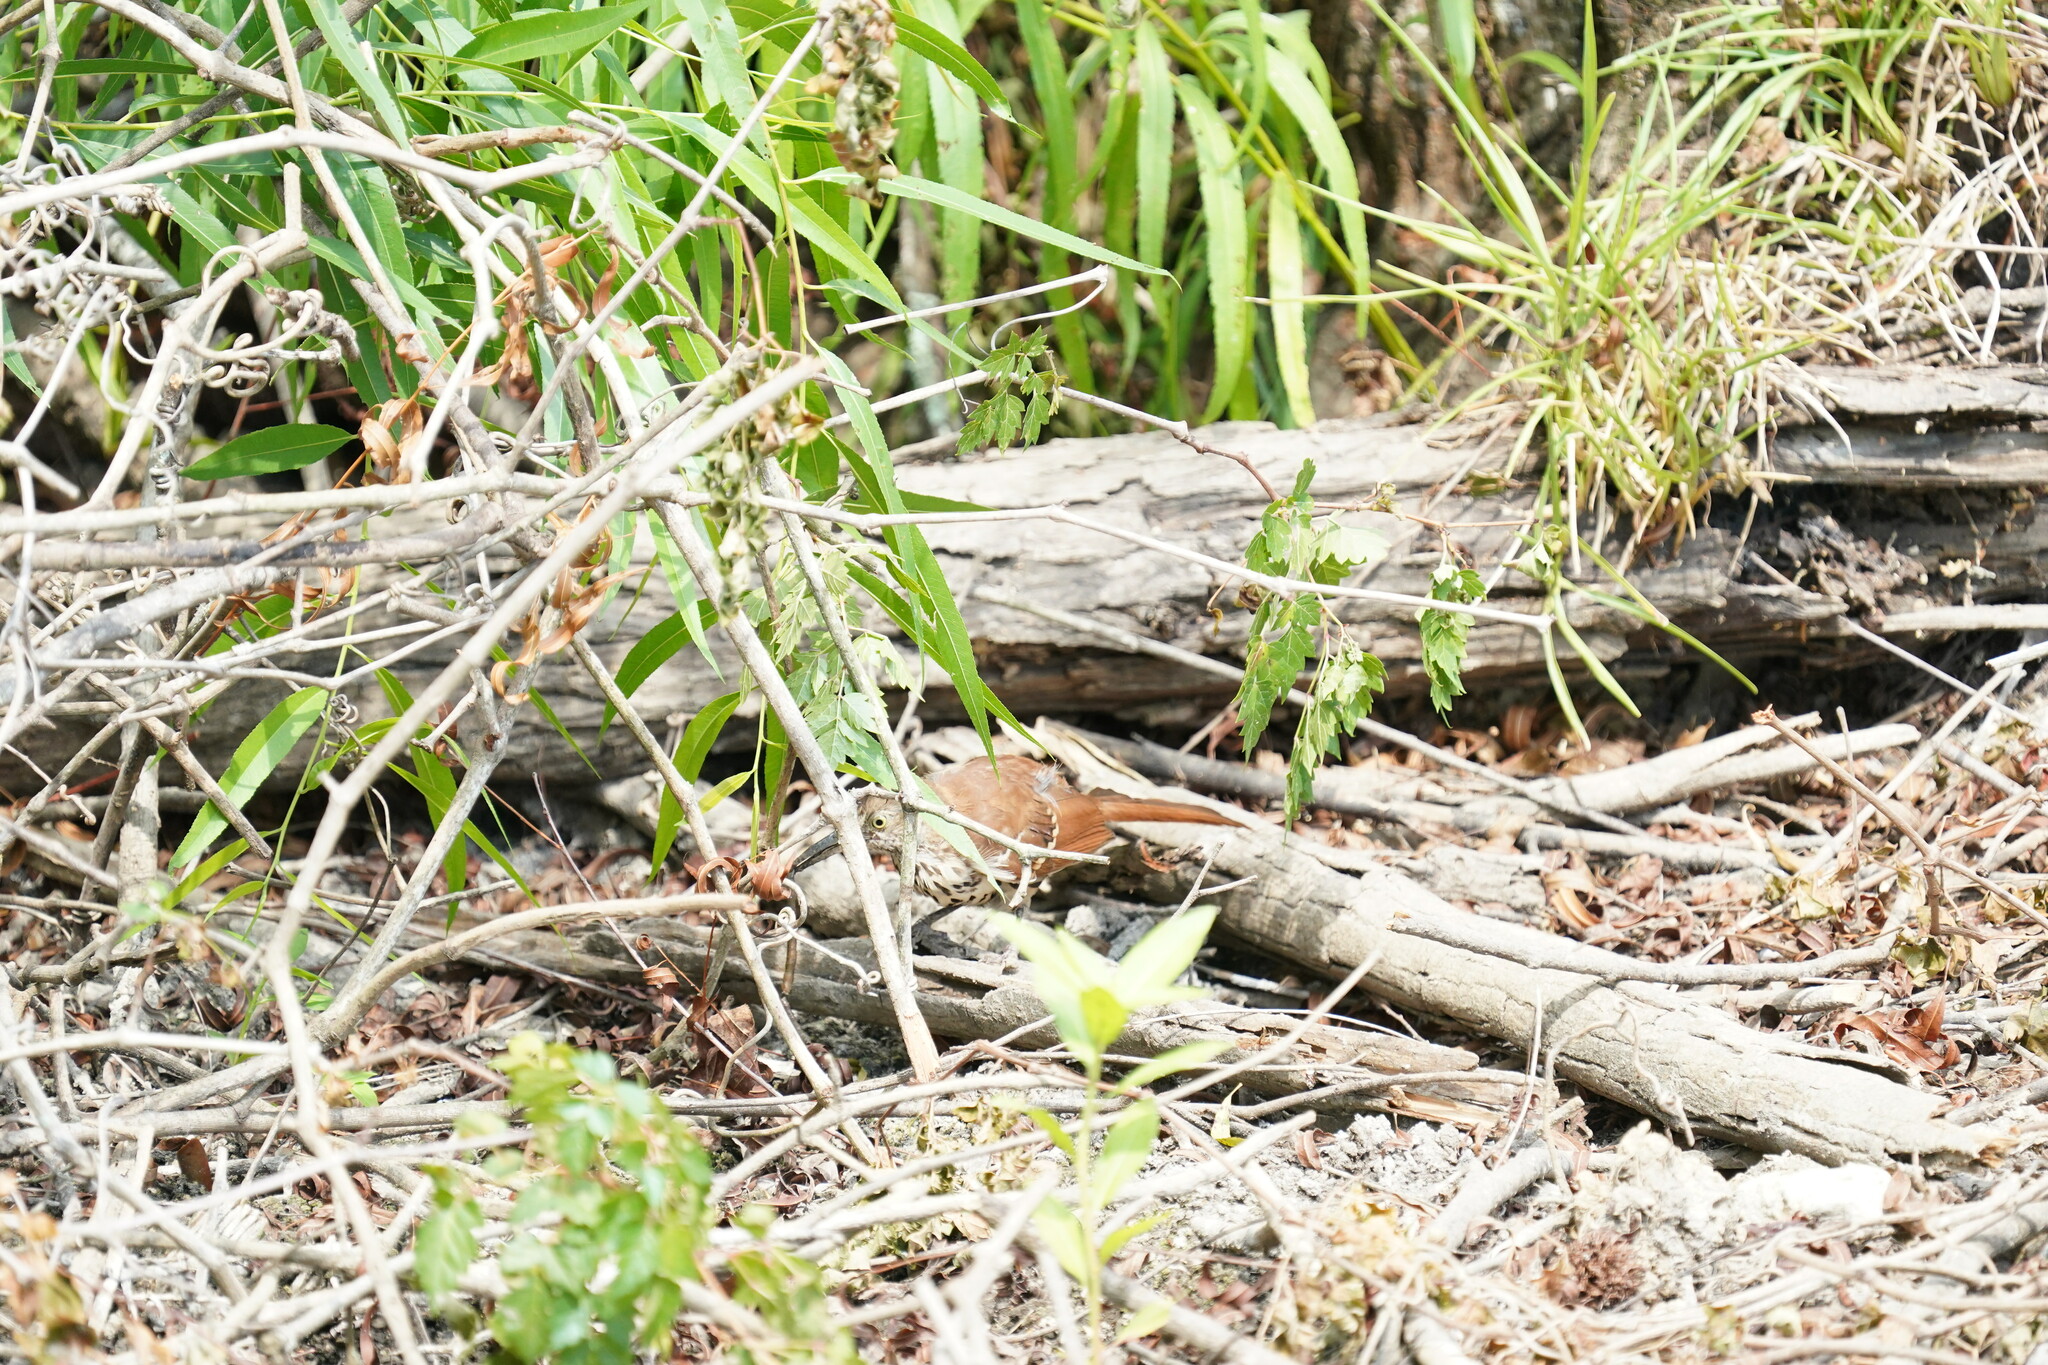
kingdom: Animalia
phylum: Chordata
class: Aves
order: Passeriformes
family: Mimidae
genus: Toxostoma
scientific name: Toxostoma rufum
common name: Brown thrasher
